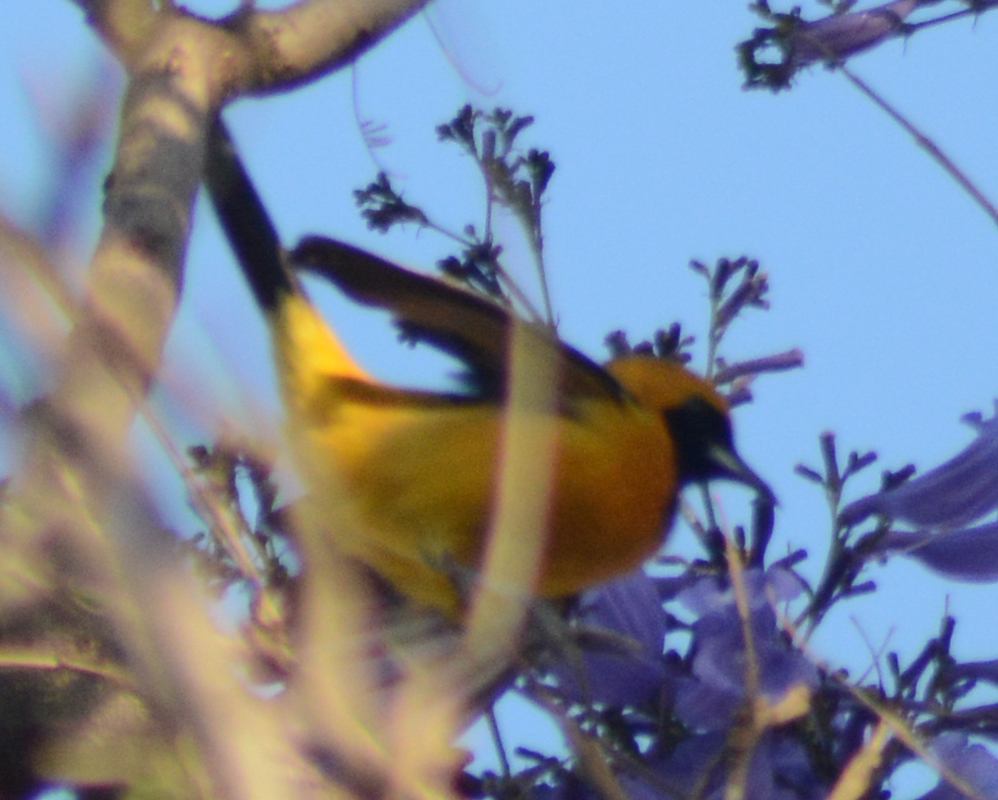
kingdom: Animalia
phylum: Chordata
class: Aves
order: Passeriformes
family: Icteridae
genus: Icterus
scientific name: Icterus cucullatus
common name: Hooded oriole
